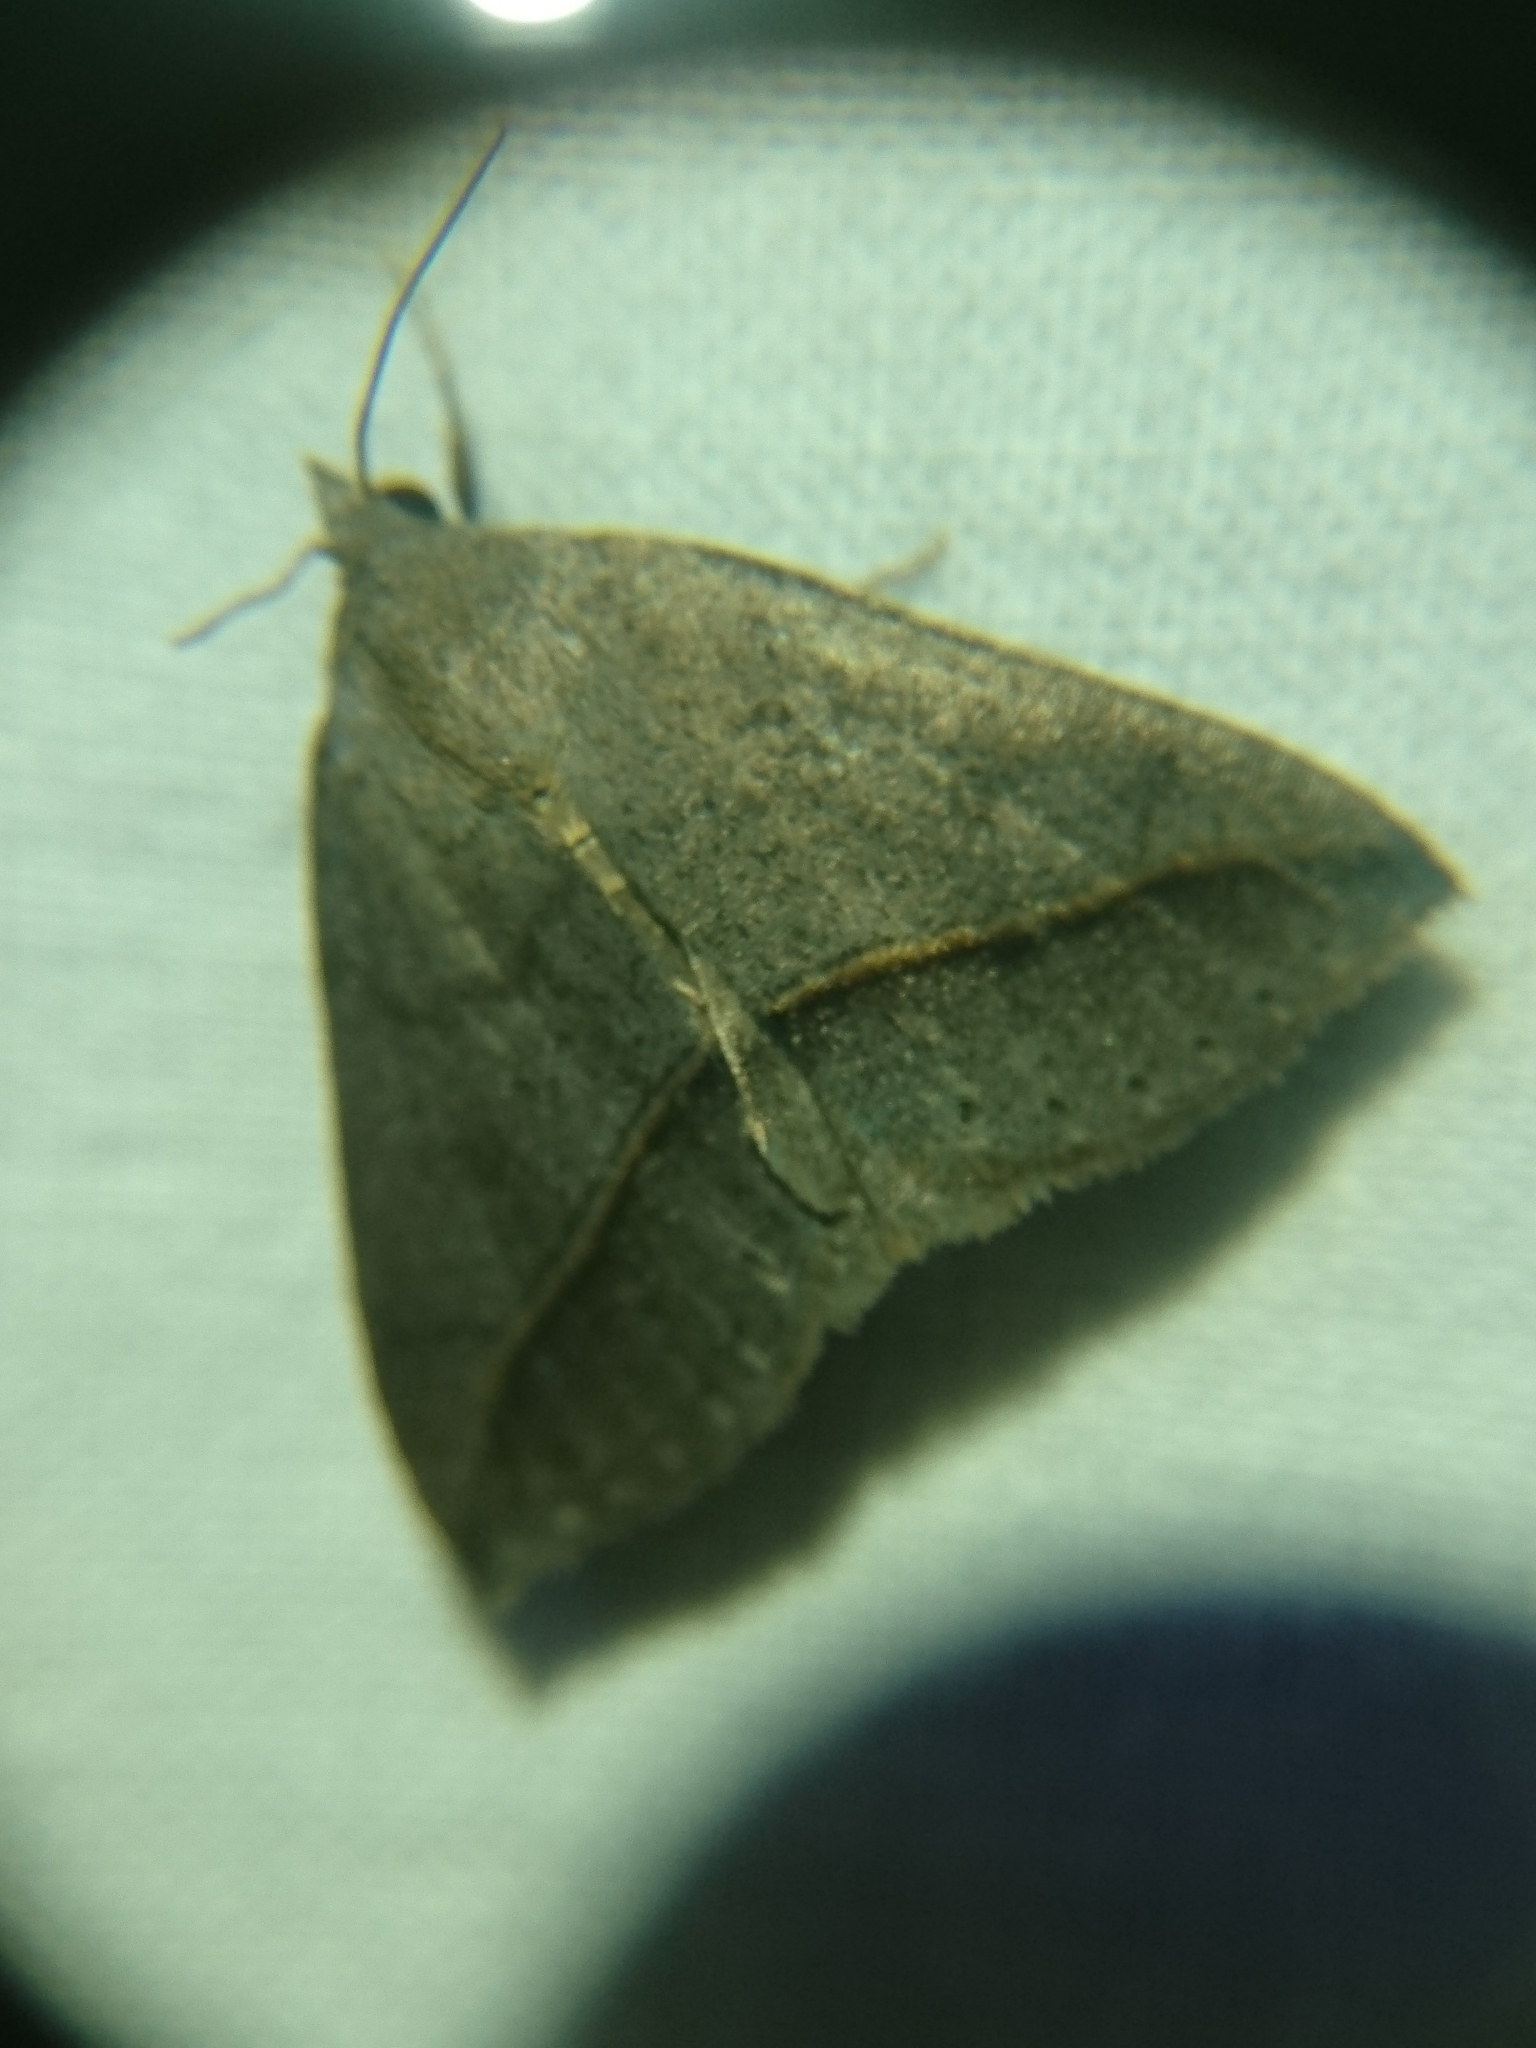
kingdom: Animalia
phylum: Arthropoda
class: Insecta
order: Lepidoptera
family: Erebidae
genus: Argyrostrotis
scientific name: Argyrostrotis flavistriaria
